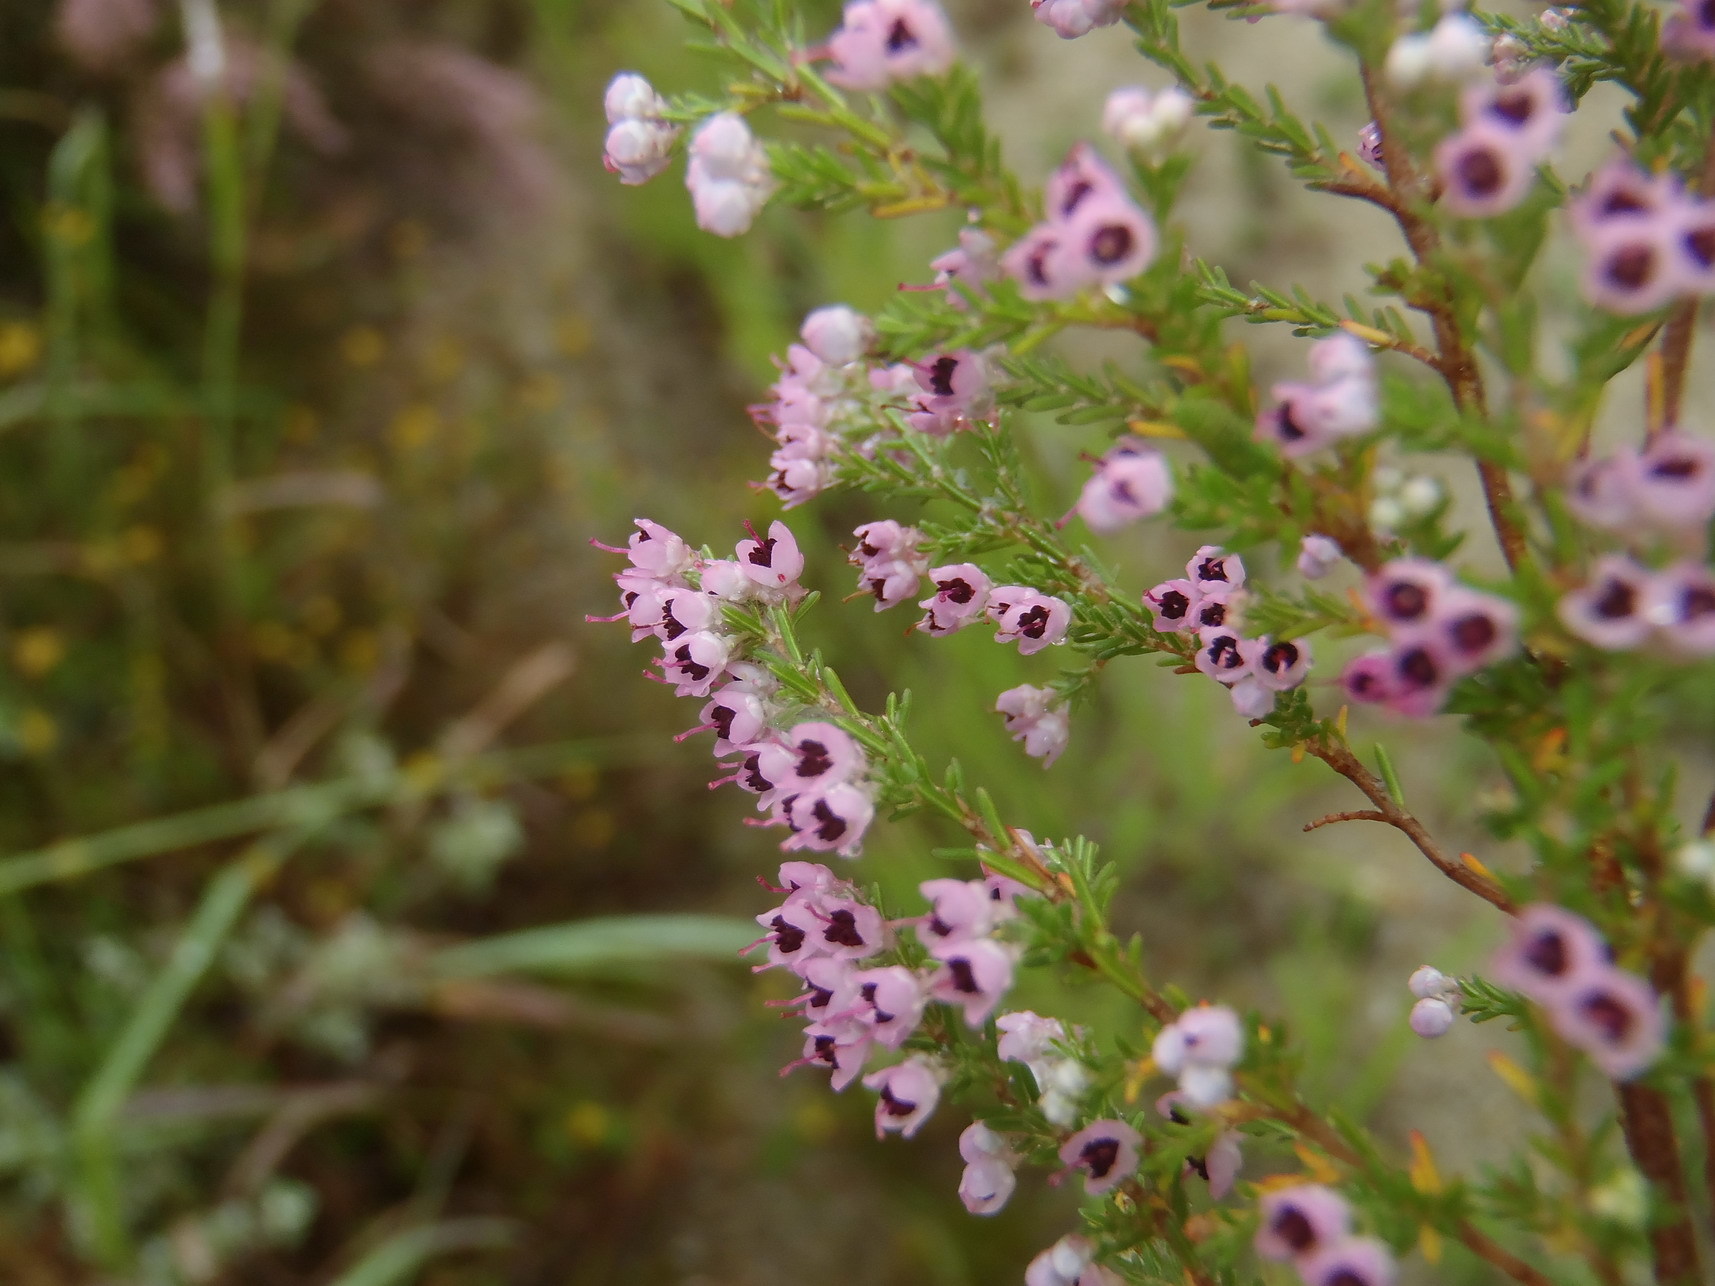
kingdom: Plantae
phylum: Tracheophyta
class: Magnoliopsida
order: Ericales
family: Ericaceae
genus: Erica
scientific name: Erica sparsa
